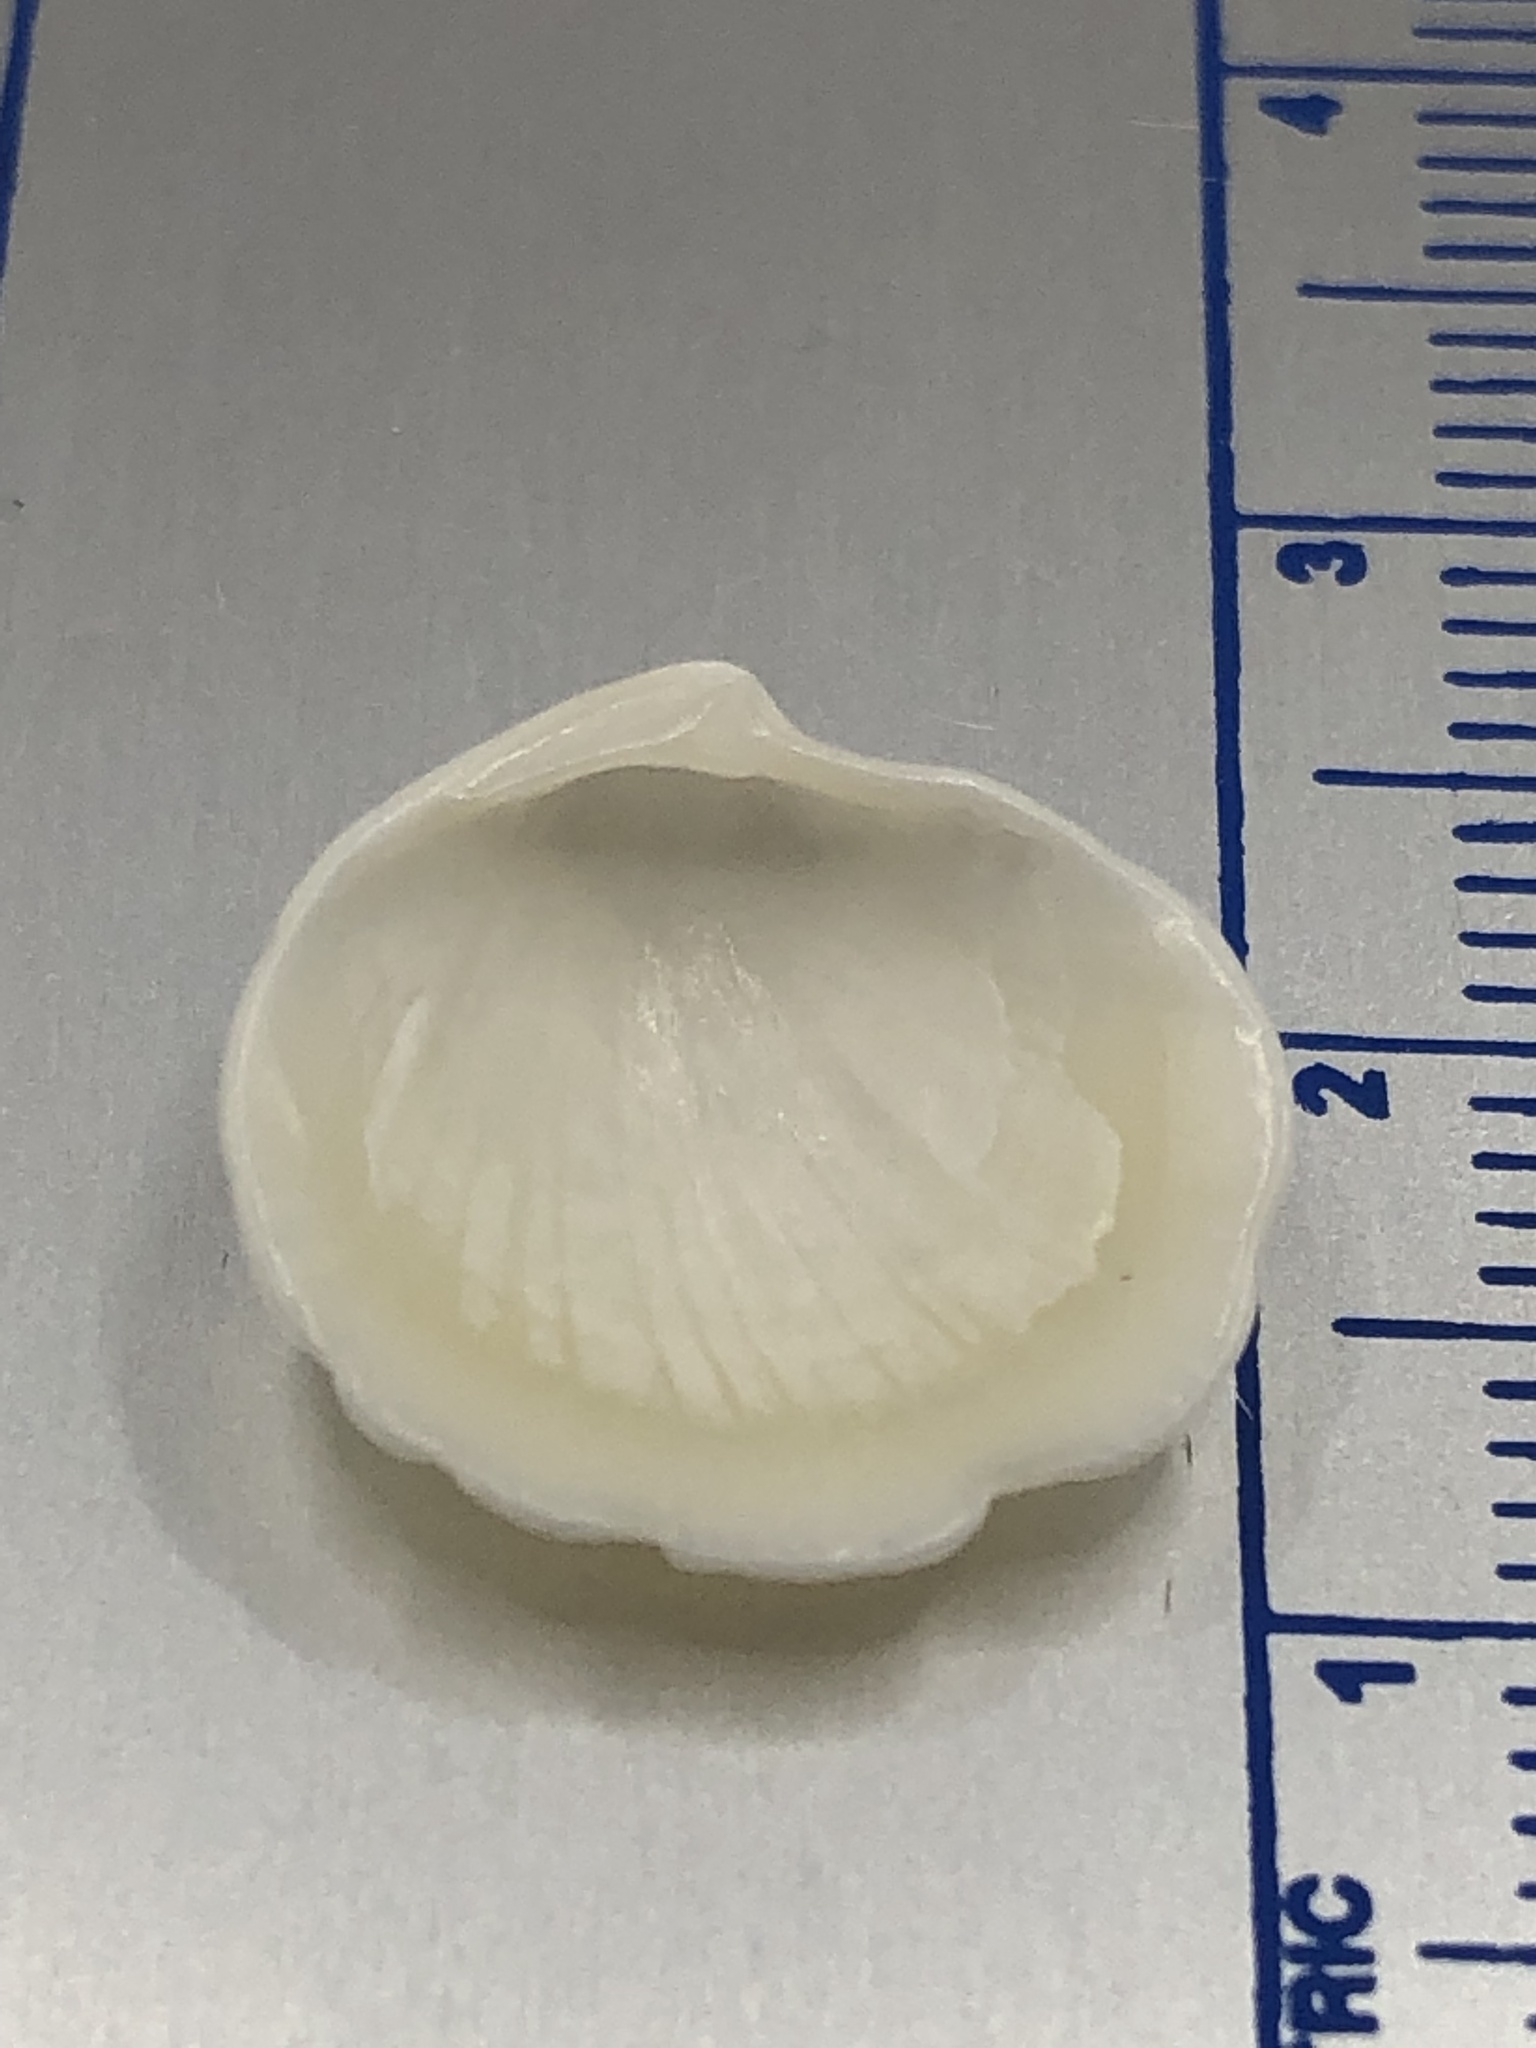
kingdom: Animalia
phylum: Mollusca
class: Bivalvia
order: Lucinida
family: Lucinidae
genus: Callucina
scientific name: Callucina keenae
